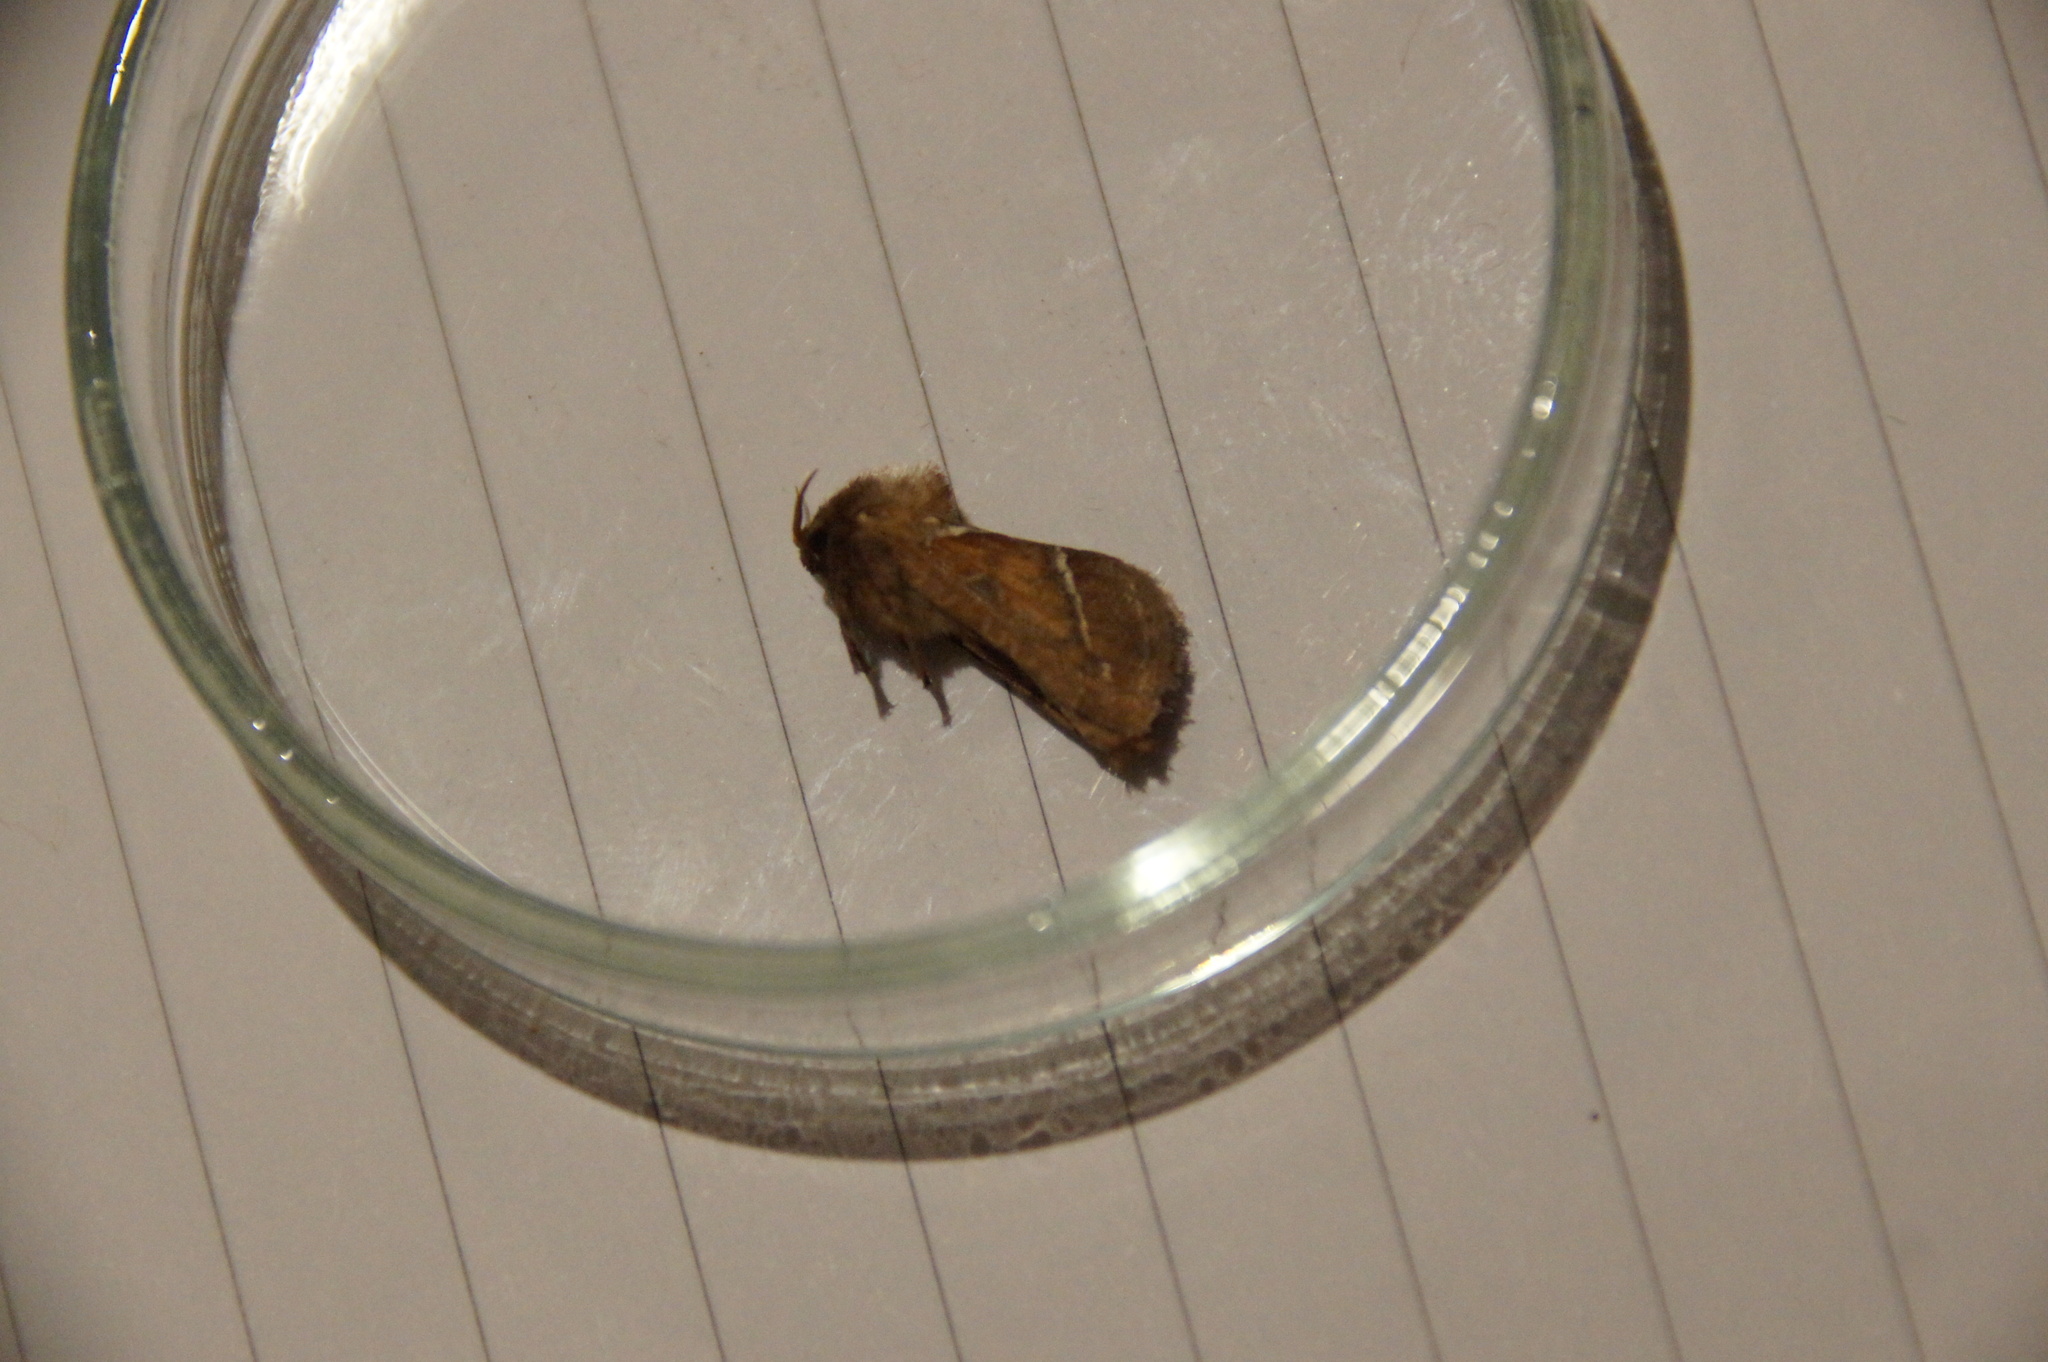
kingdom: Animalia
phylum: Arthropoda
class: Insecta
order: Lepidoptera
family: Hepialidae
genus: Triodia
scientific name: Triodia sylvina
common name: Orange swift
